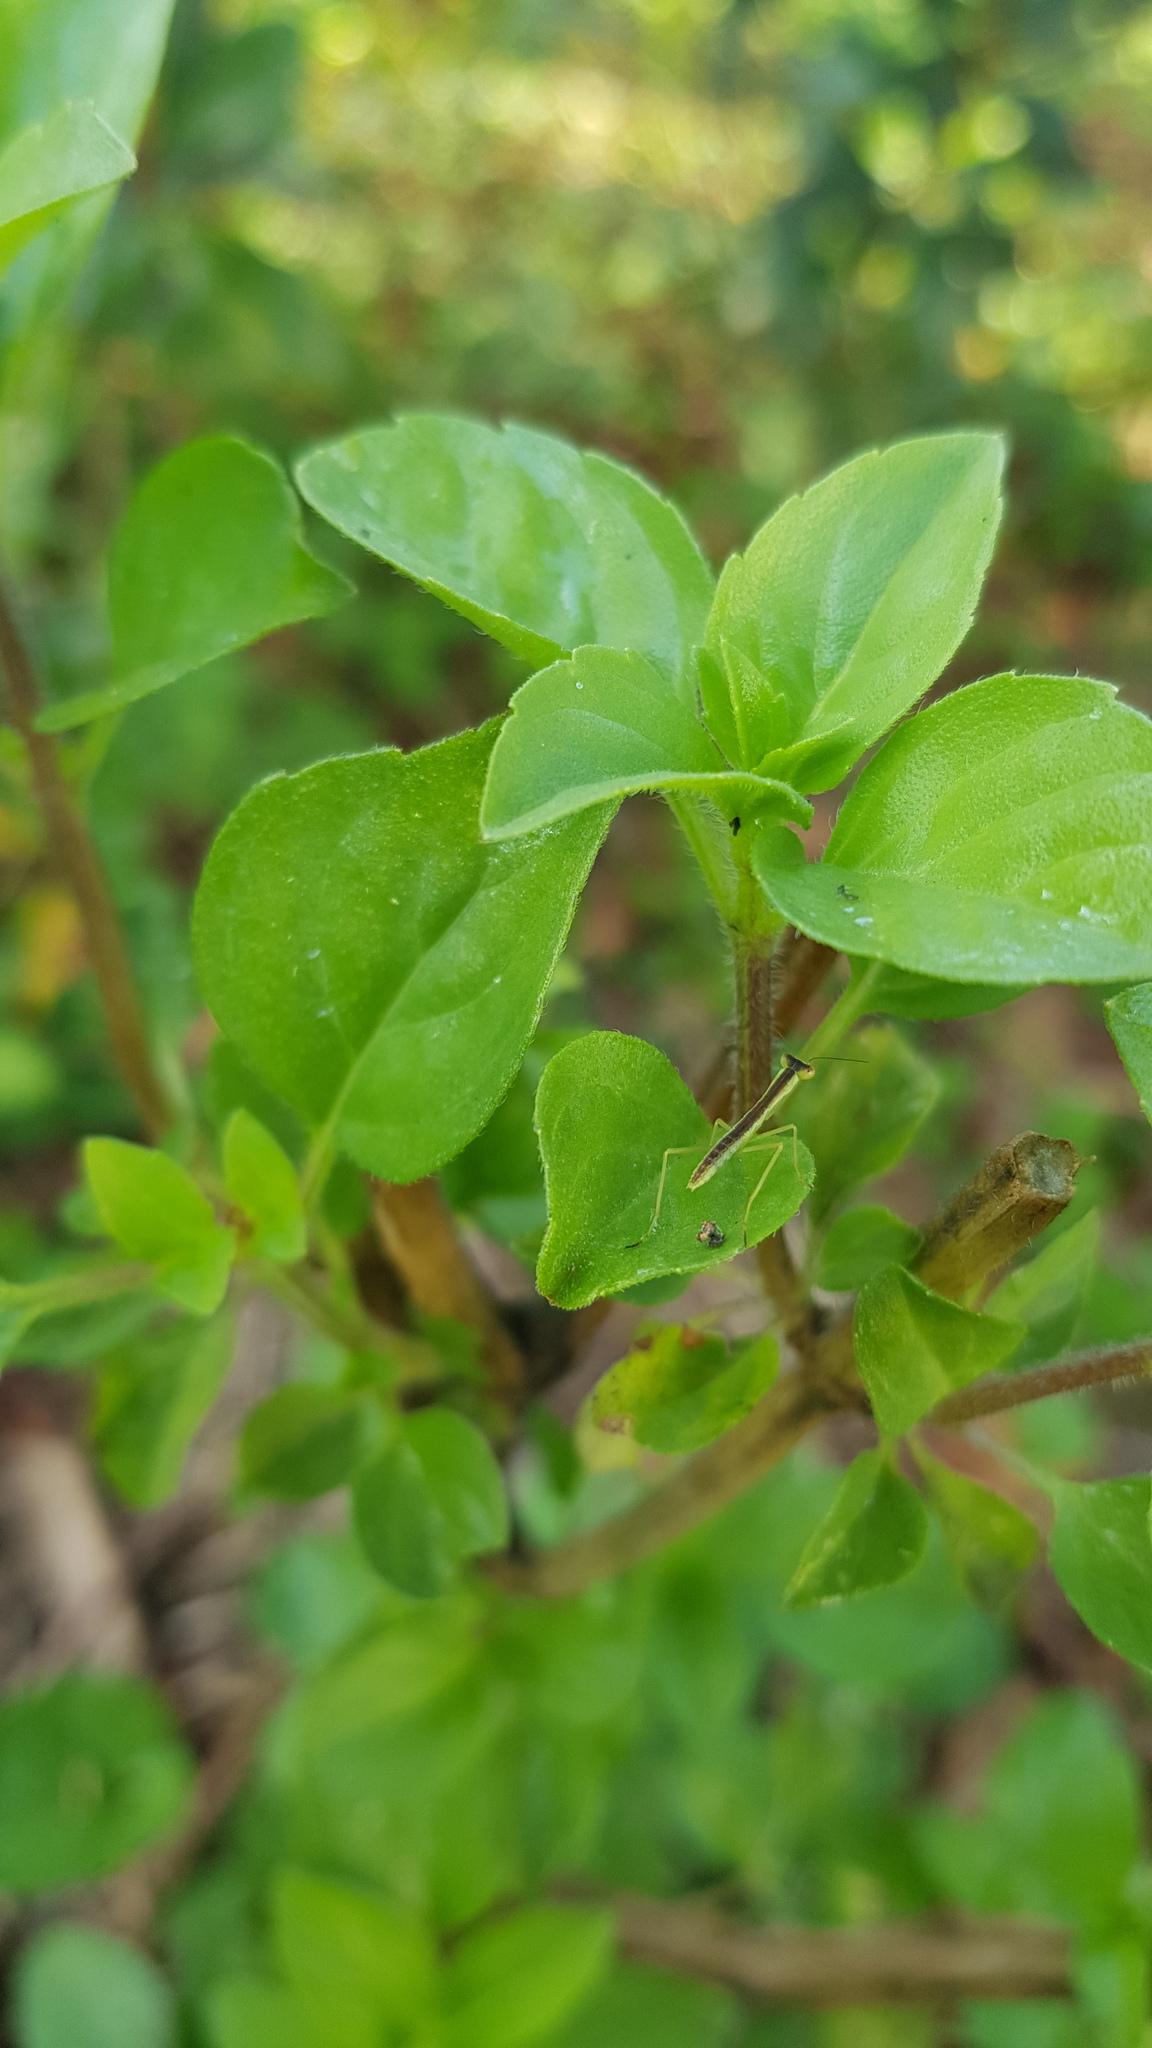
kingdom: Animalia
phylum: Arthropoda
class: Insecta
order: Mantodea
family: Mantidae
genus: Orthodera
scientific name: Orthodera ministralis
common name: Mantis
